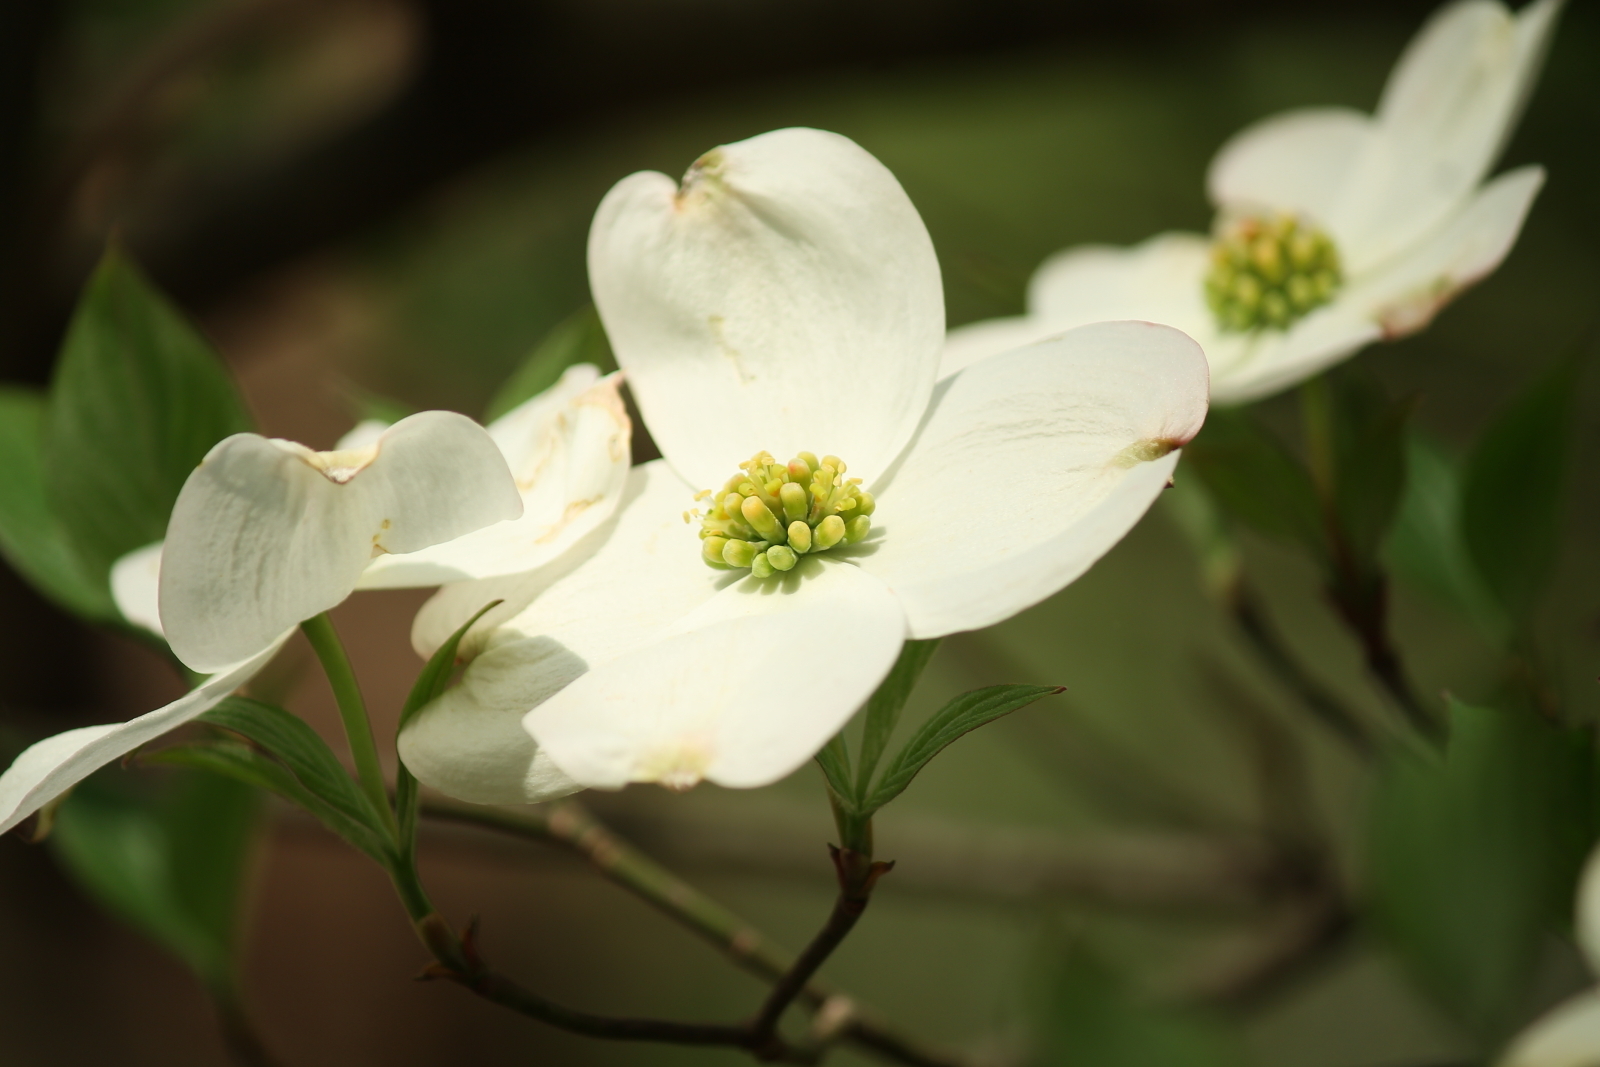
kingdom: Plantae
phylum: Tracheophyta
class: Magnoliopsida
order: Cornales
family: Cornaceae
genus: Cornus
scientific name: Cornus florida
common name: Flowering dogwood
